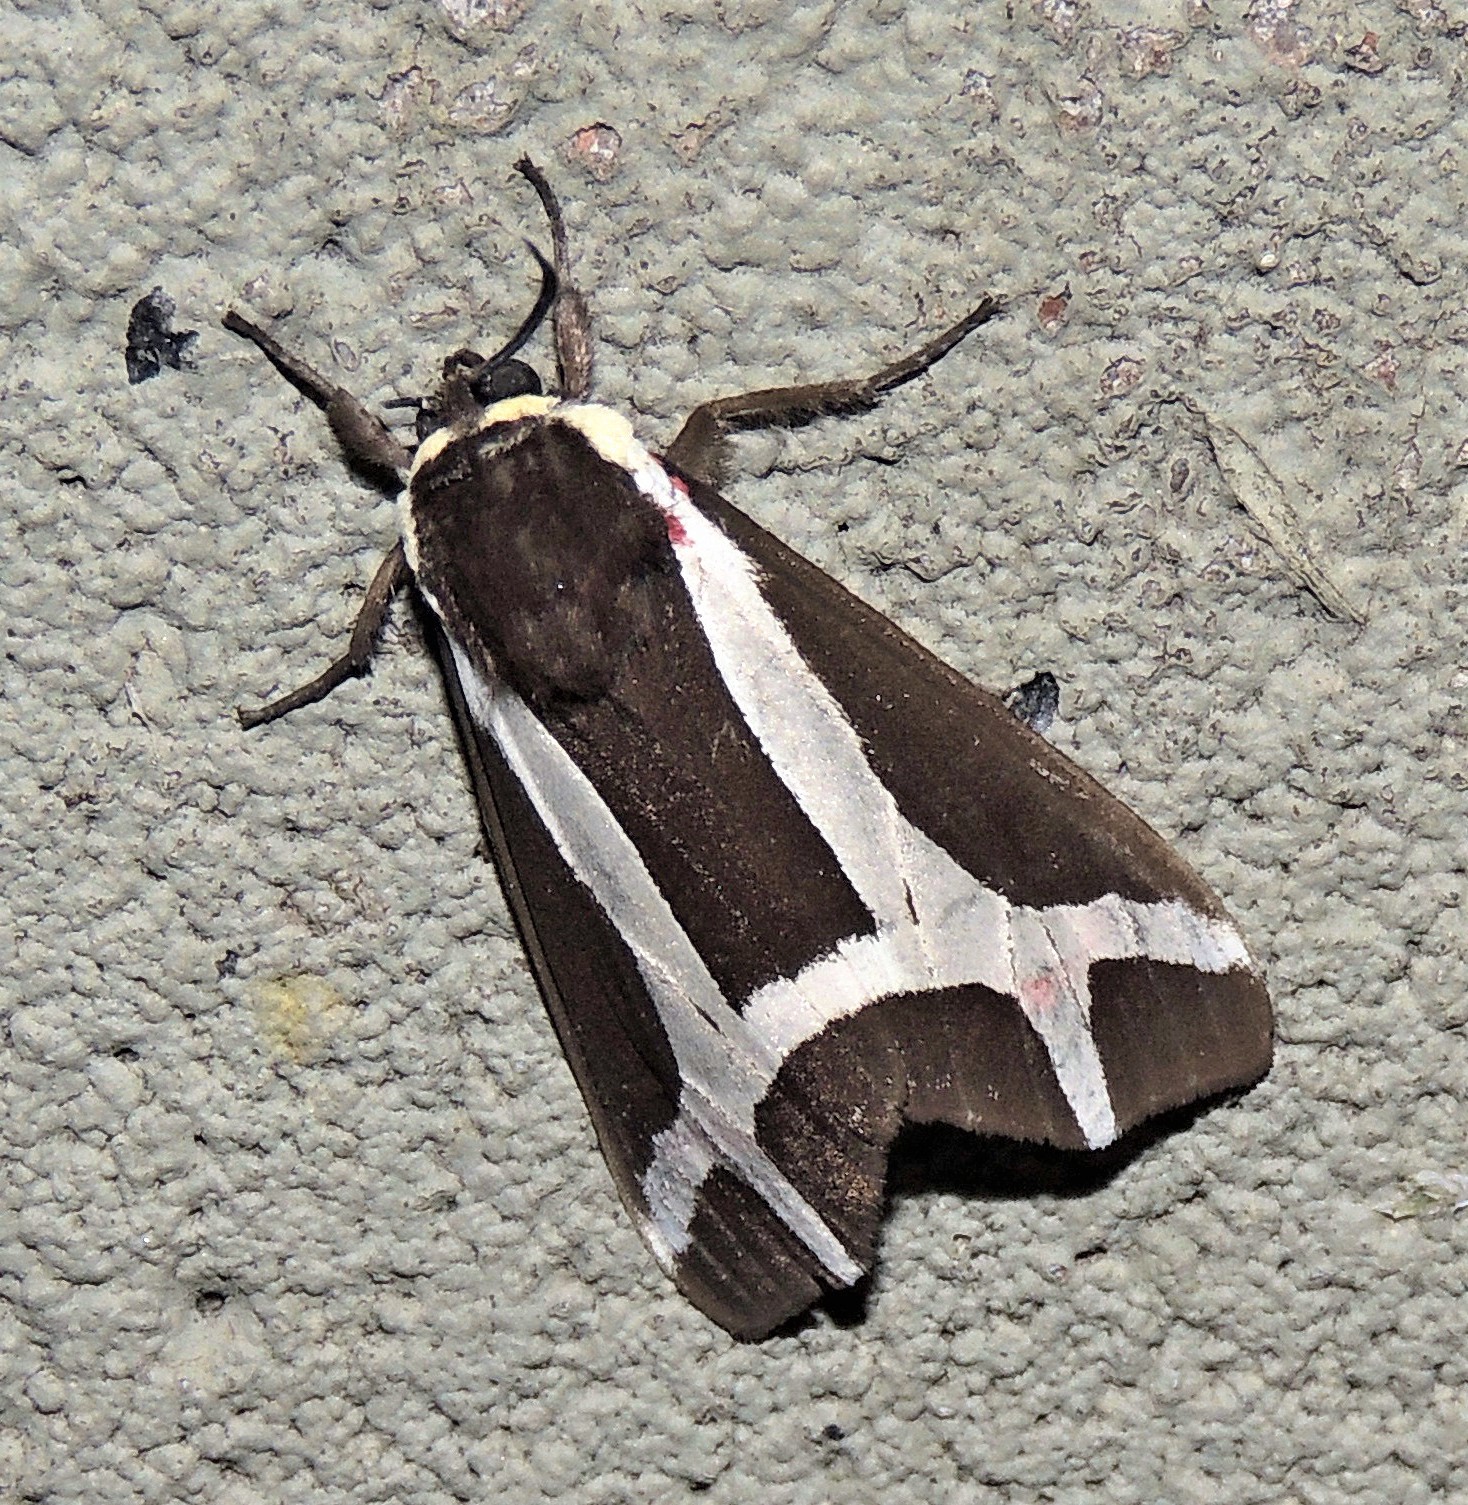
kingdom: Animalia
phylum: Arthropoda
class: Insecta
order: Lepidoptera
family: Erebidae
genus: Dysschema
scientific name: Dysschema sacrifica
